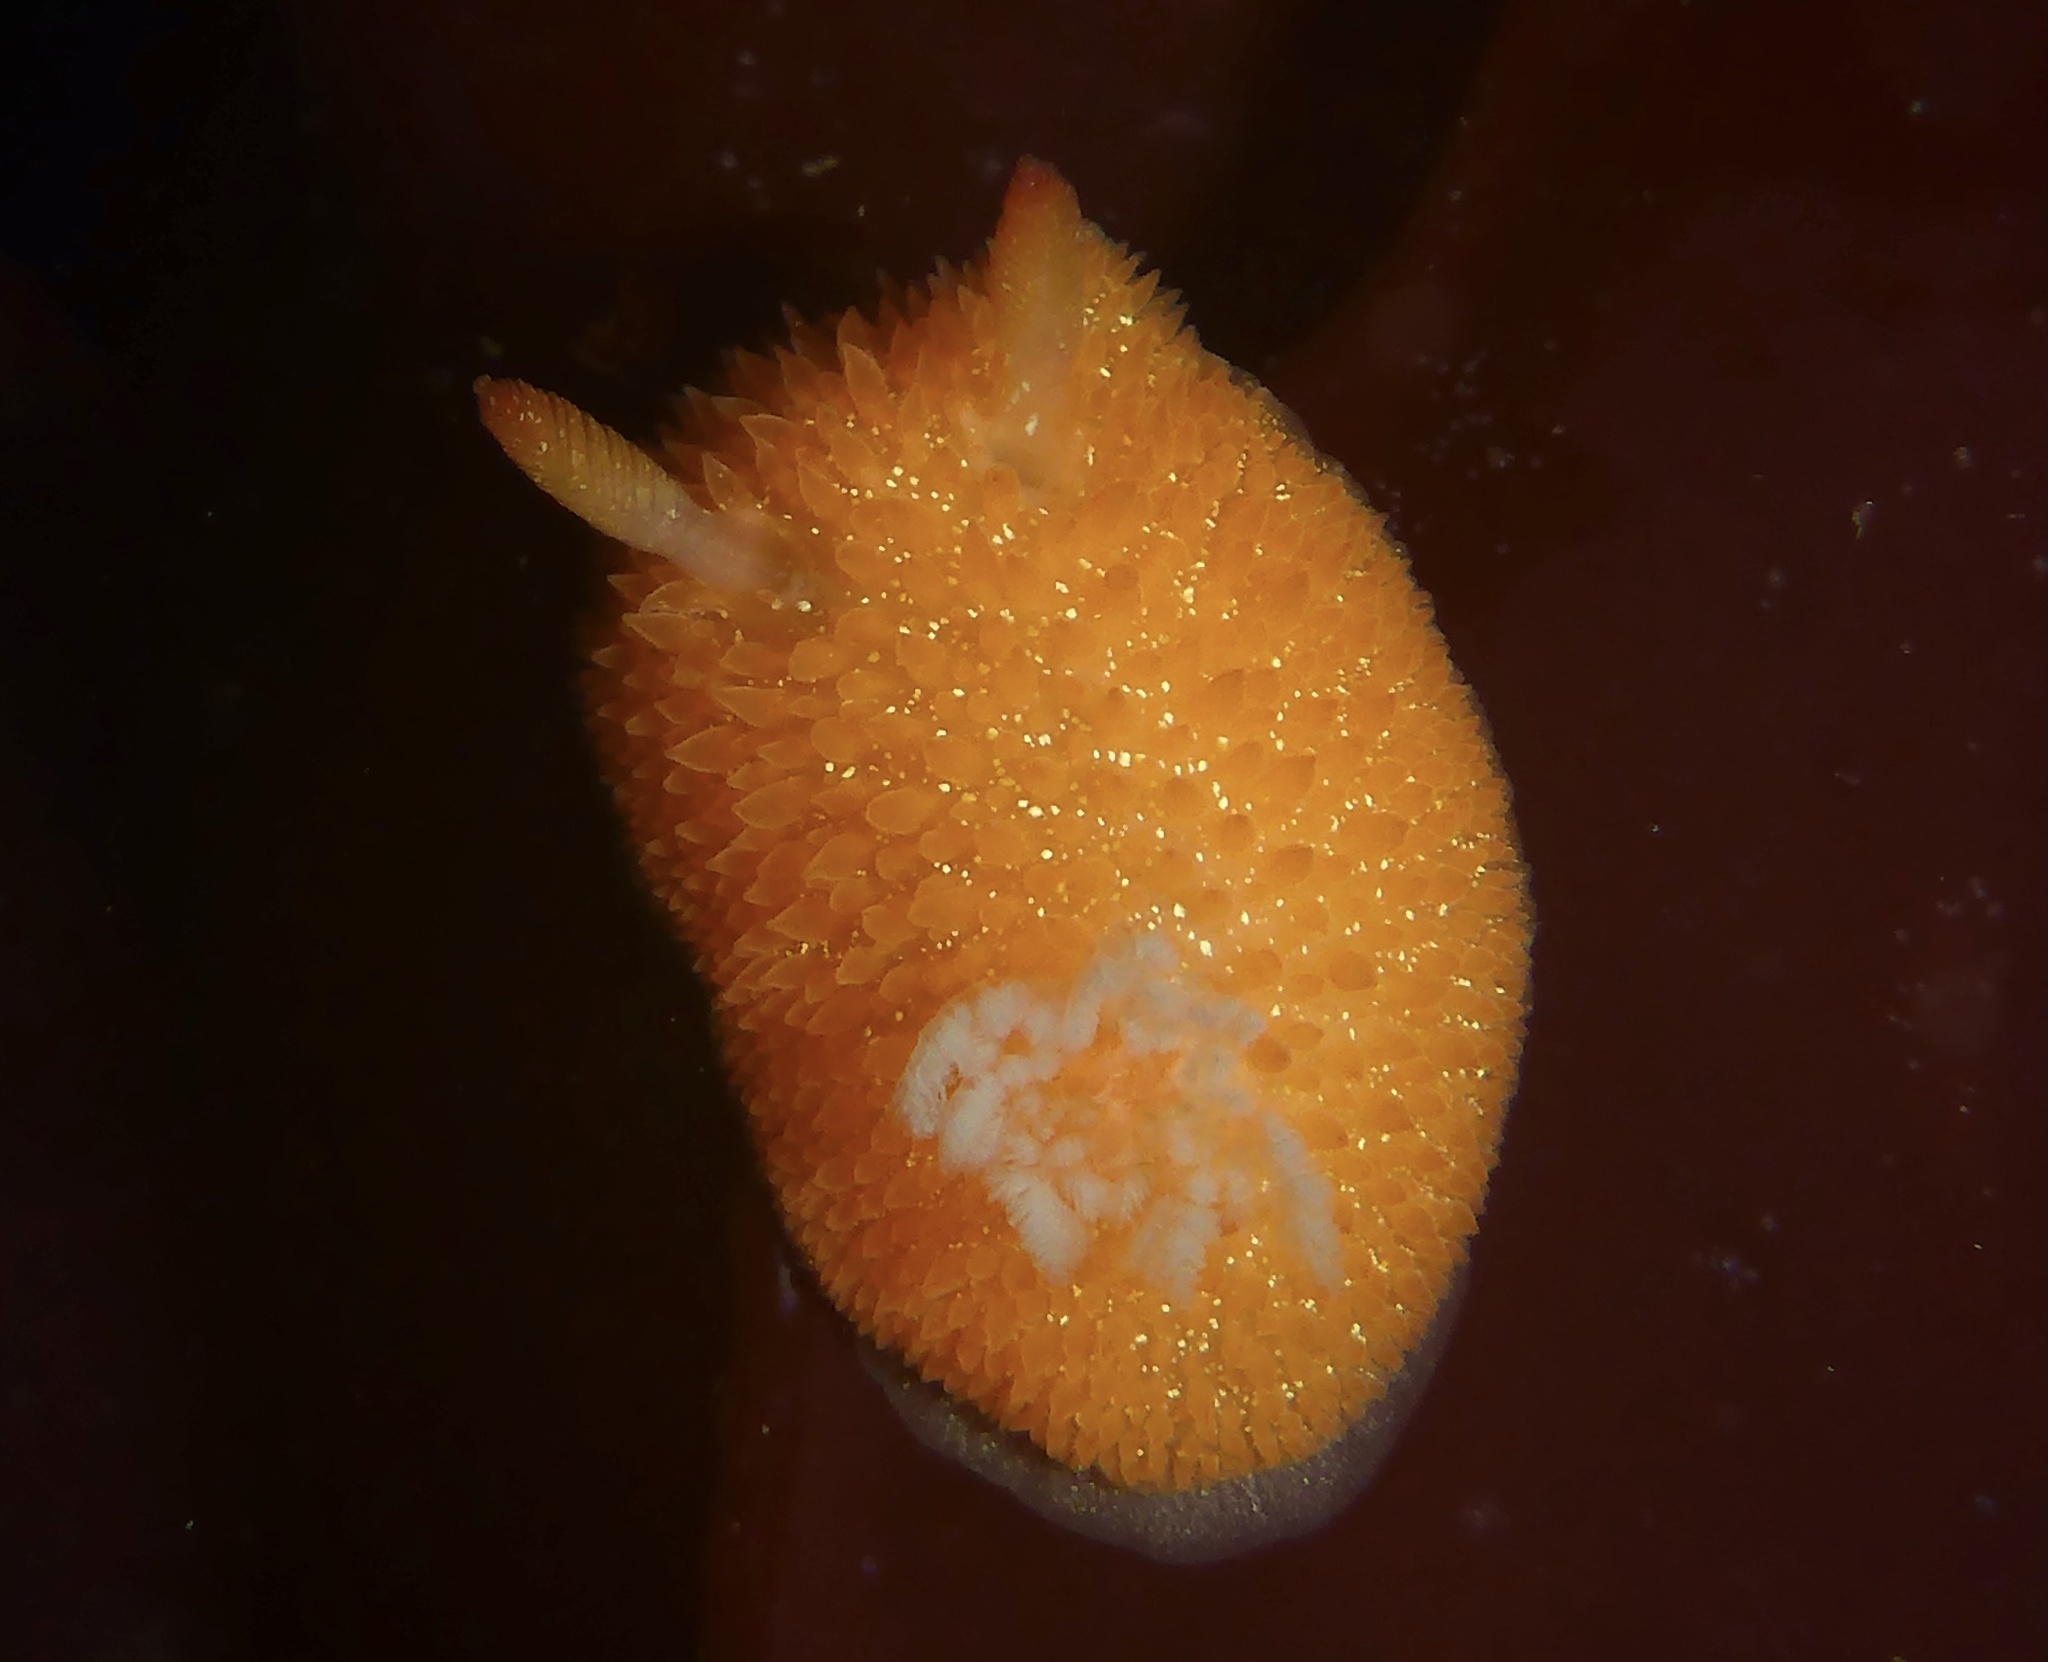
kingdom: Animalia
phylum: Mollusca
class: Gastropoda
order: Nudibranchia
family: Onchidorididae
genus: Acanthodoris
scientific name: Acanthodoris lutea
